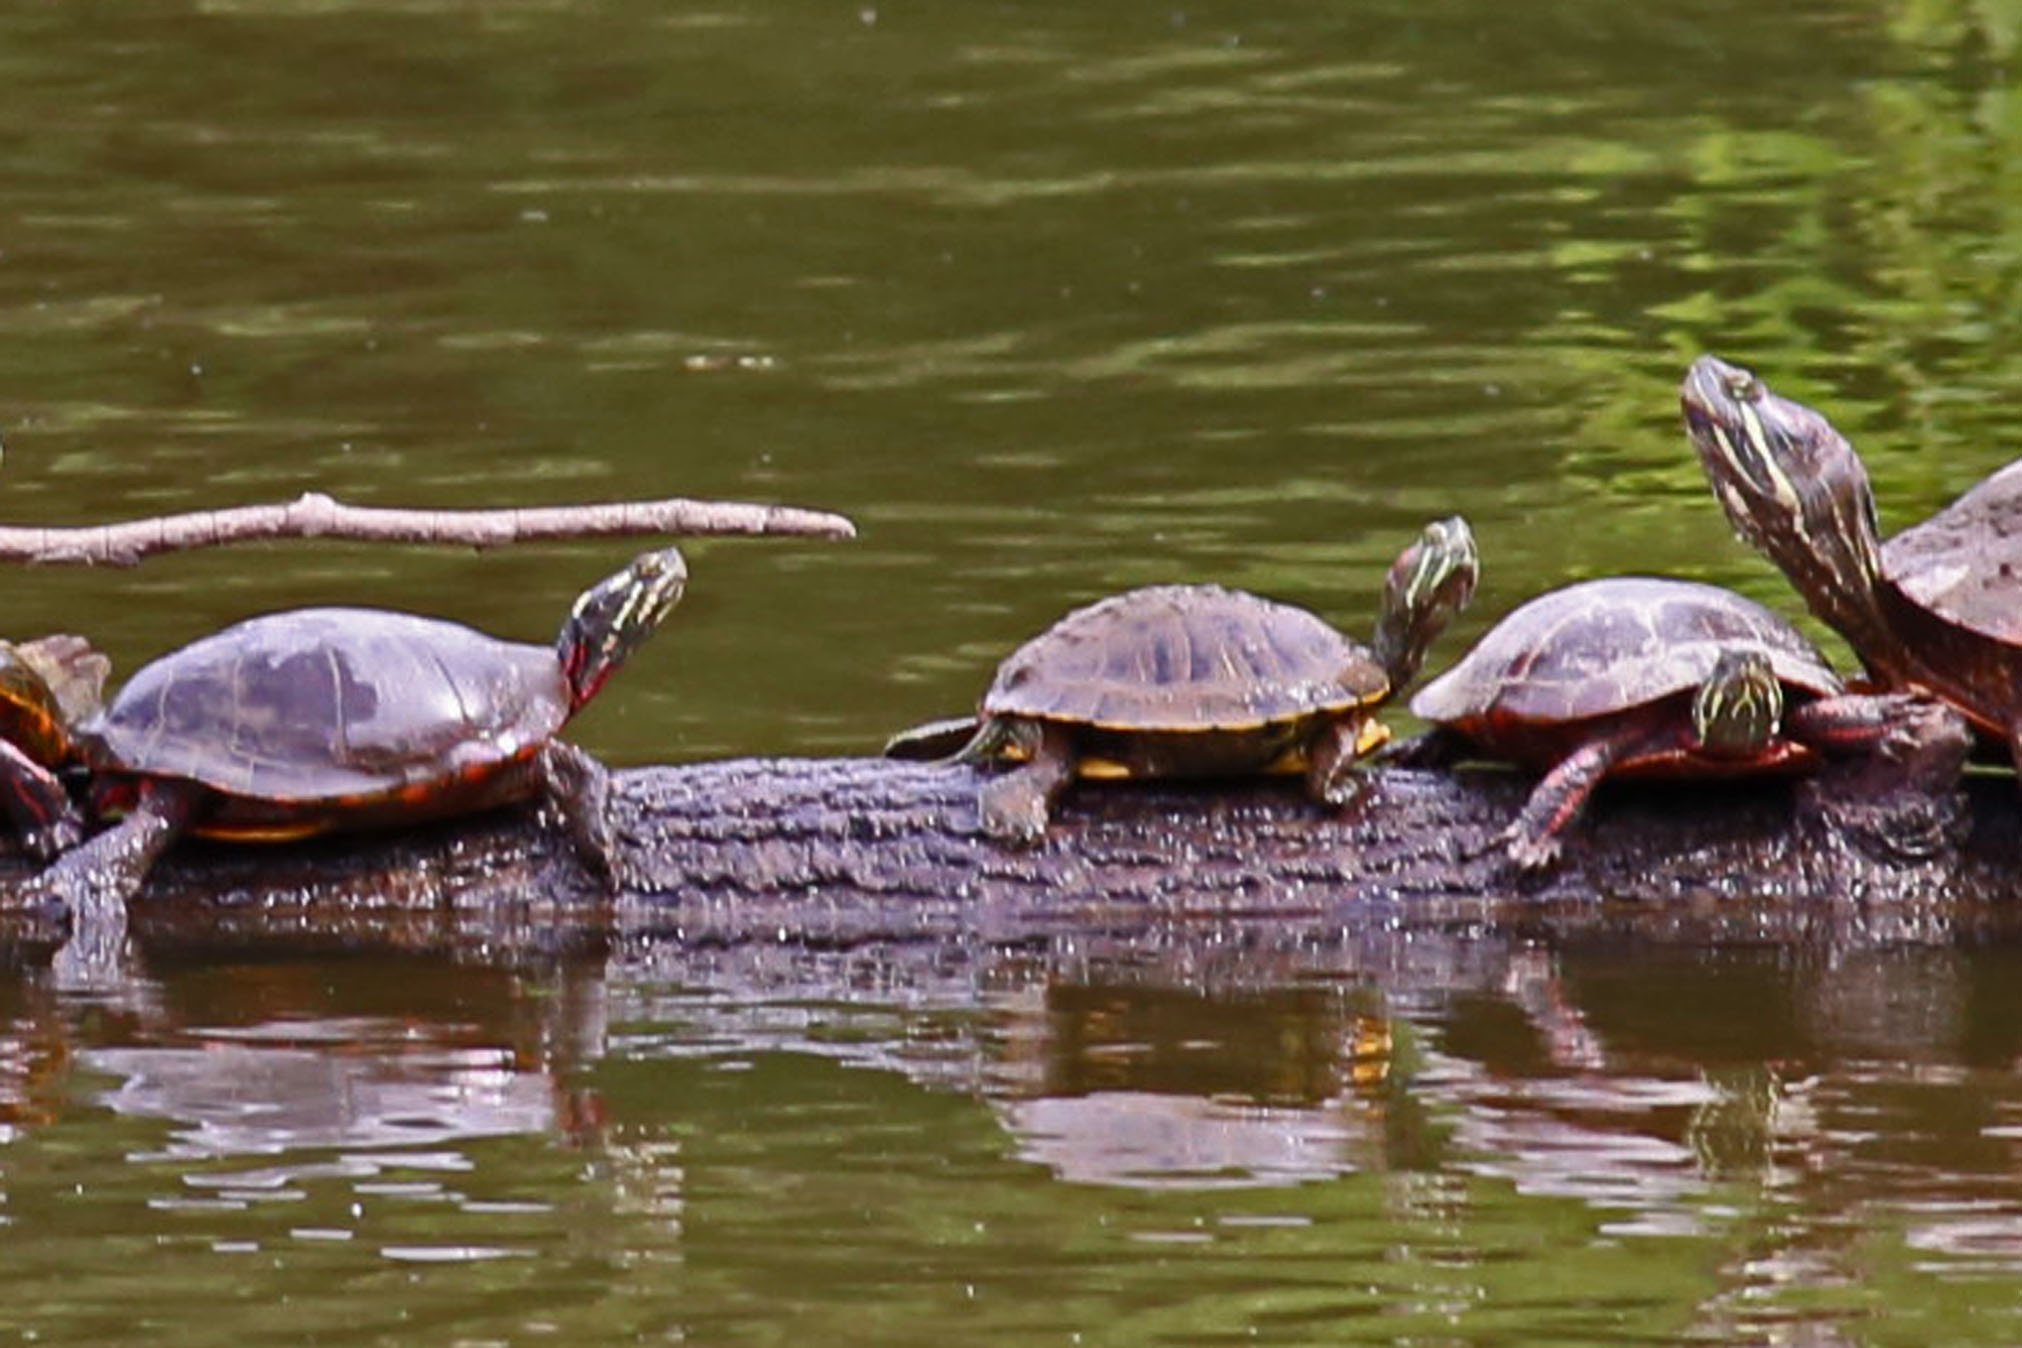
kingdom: Animalia
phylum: Chordata
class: Testudines
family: Emydidae
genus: Chrysemys
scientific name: Chrysemys picta
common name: Painted turtle
